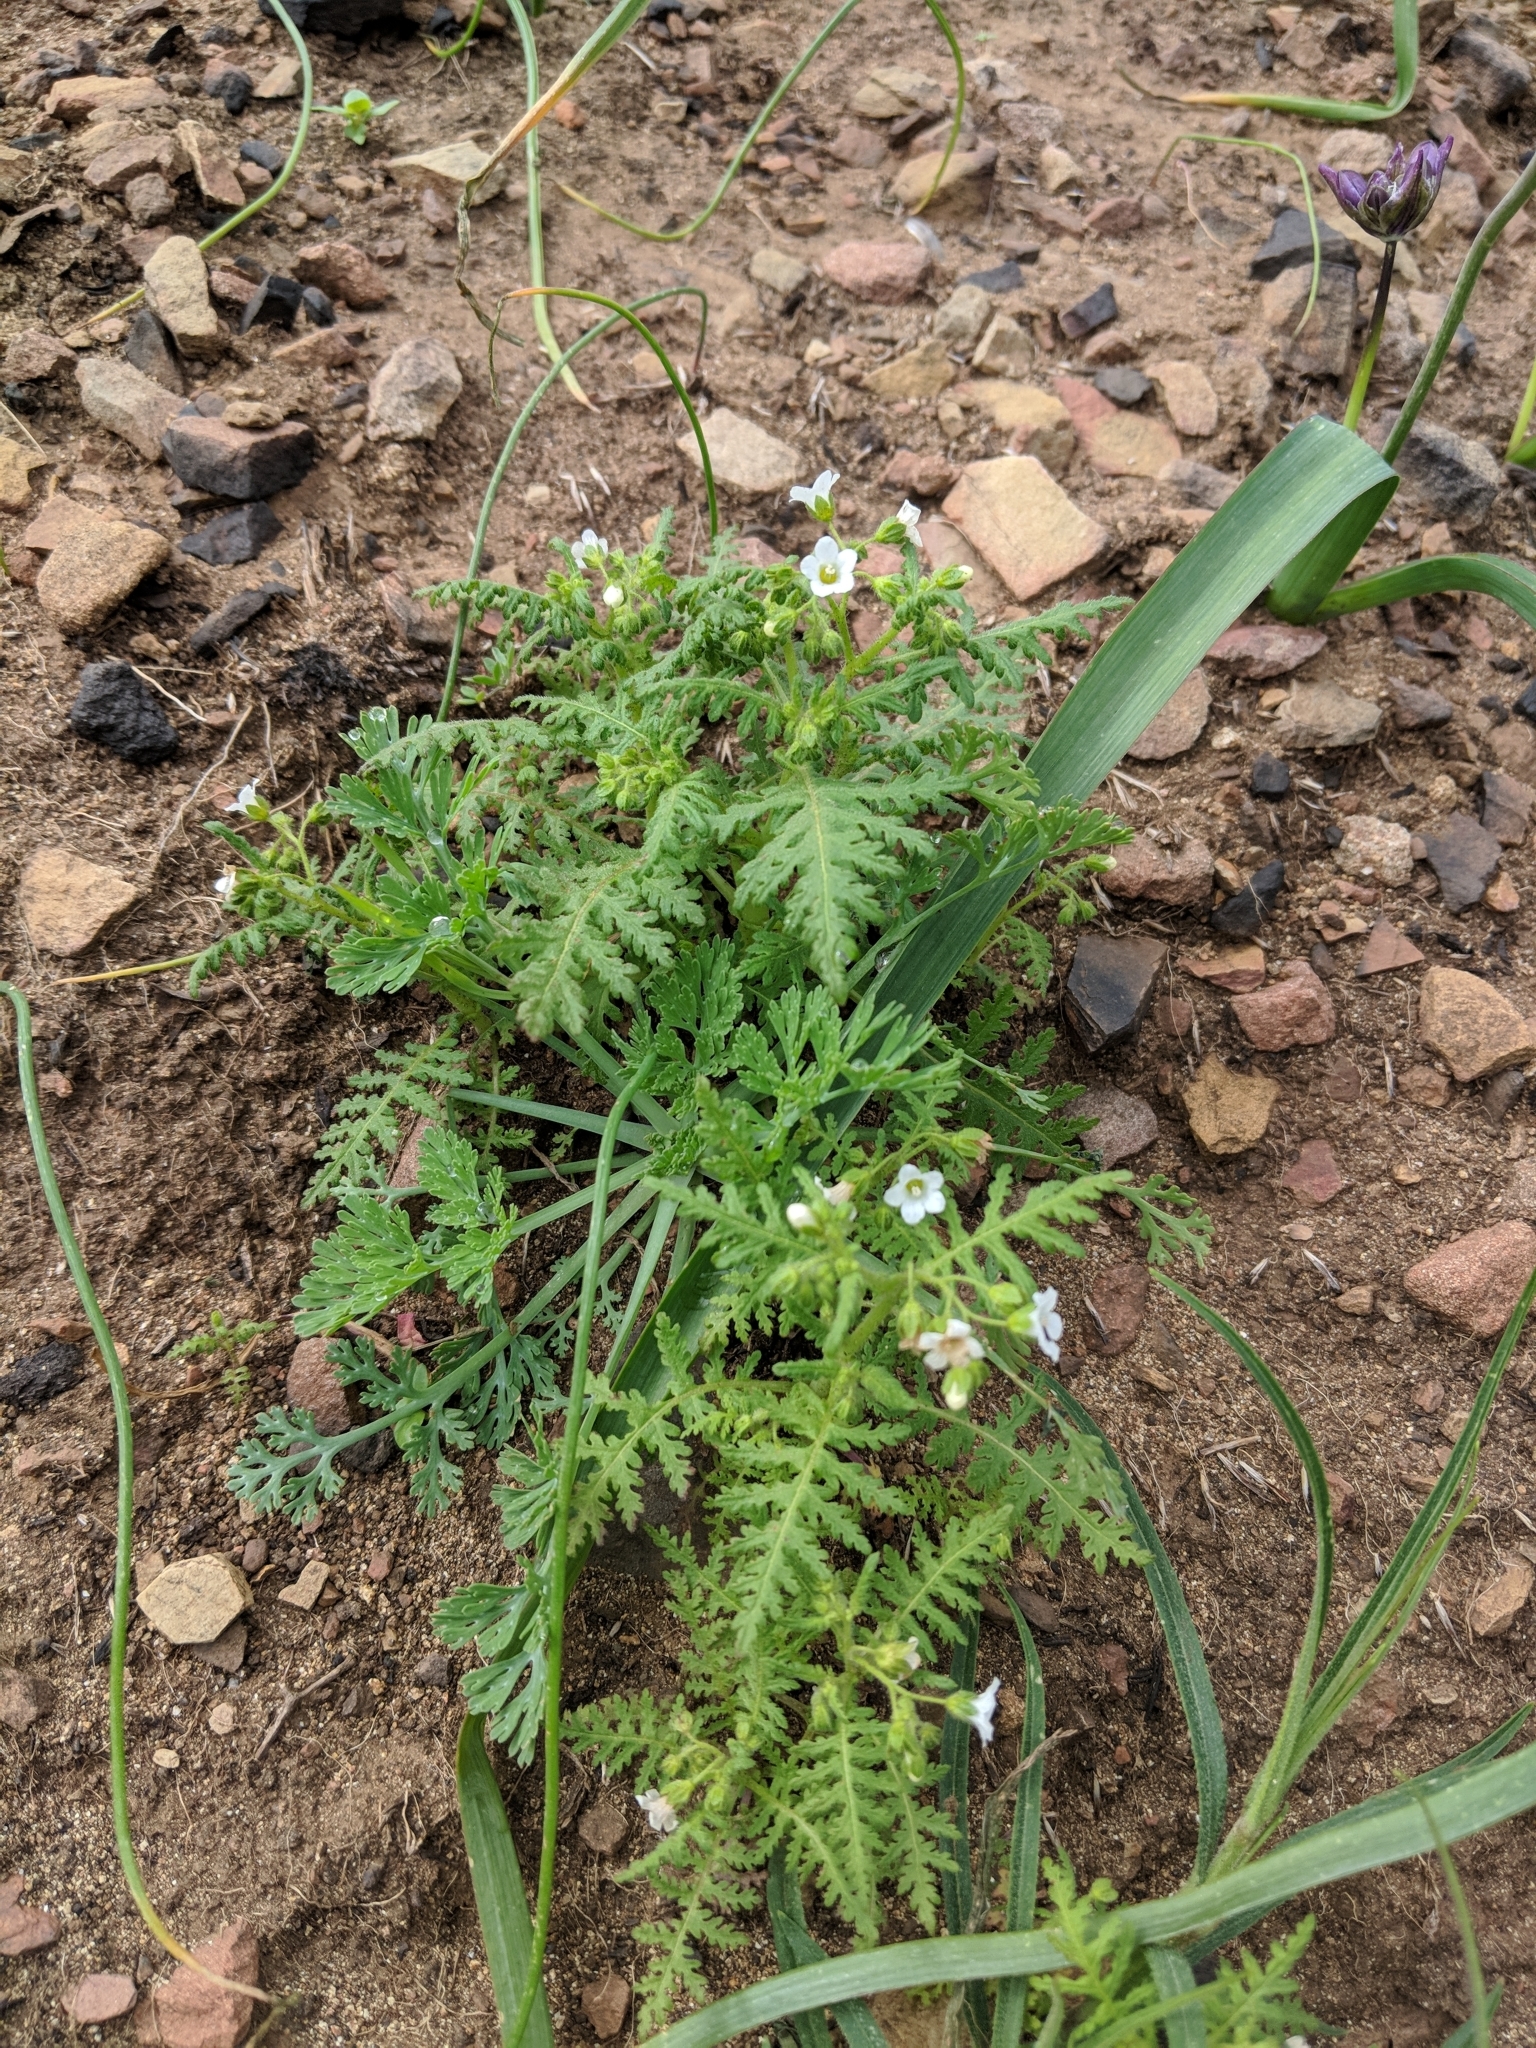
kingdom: Plantae
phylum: Tracheophyta
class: Magnoliopsida
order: Boraginales
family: Hydrophyllaceae
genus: Eucrypta
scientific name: Eucrypta chrysanthemifolia
